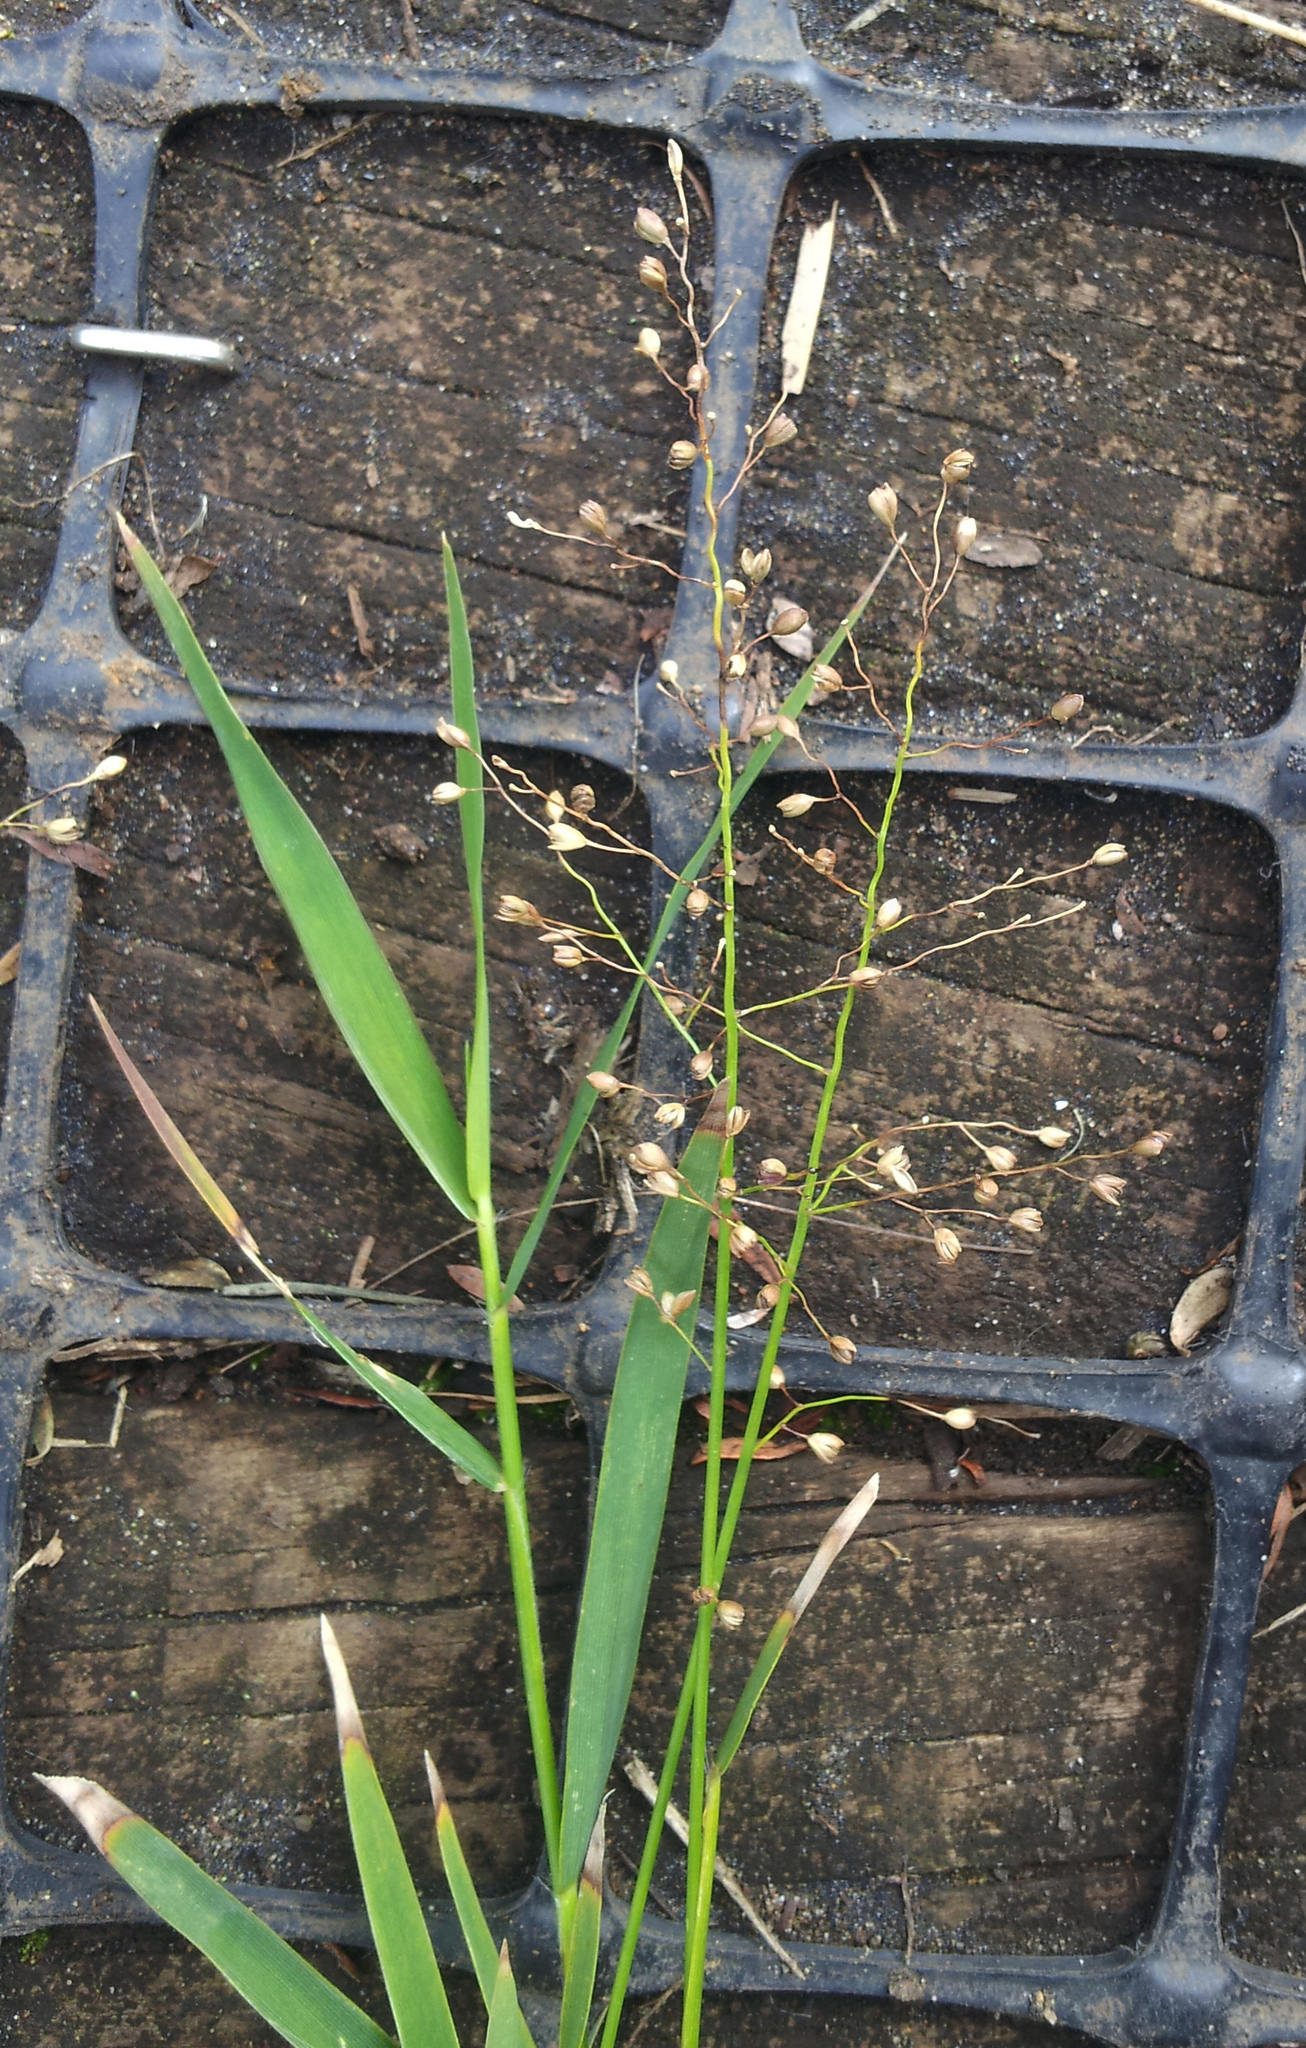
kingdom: Plantae
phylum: Tracheophyta
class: Liliopsida
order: Poales
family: Poaceae
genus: Isachne
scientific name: Isachne globosa
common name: Swamp millet
